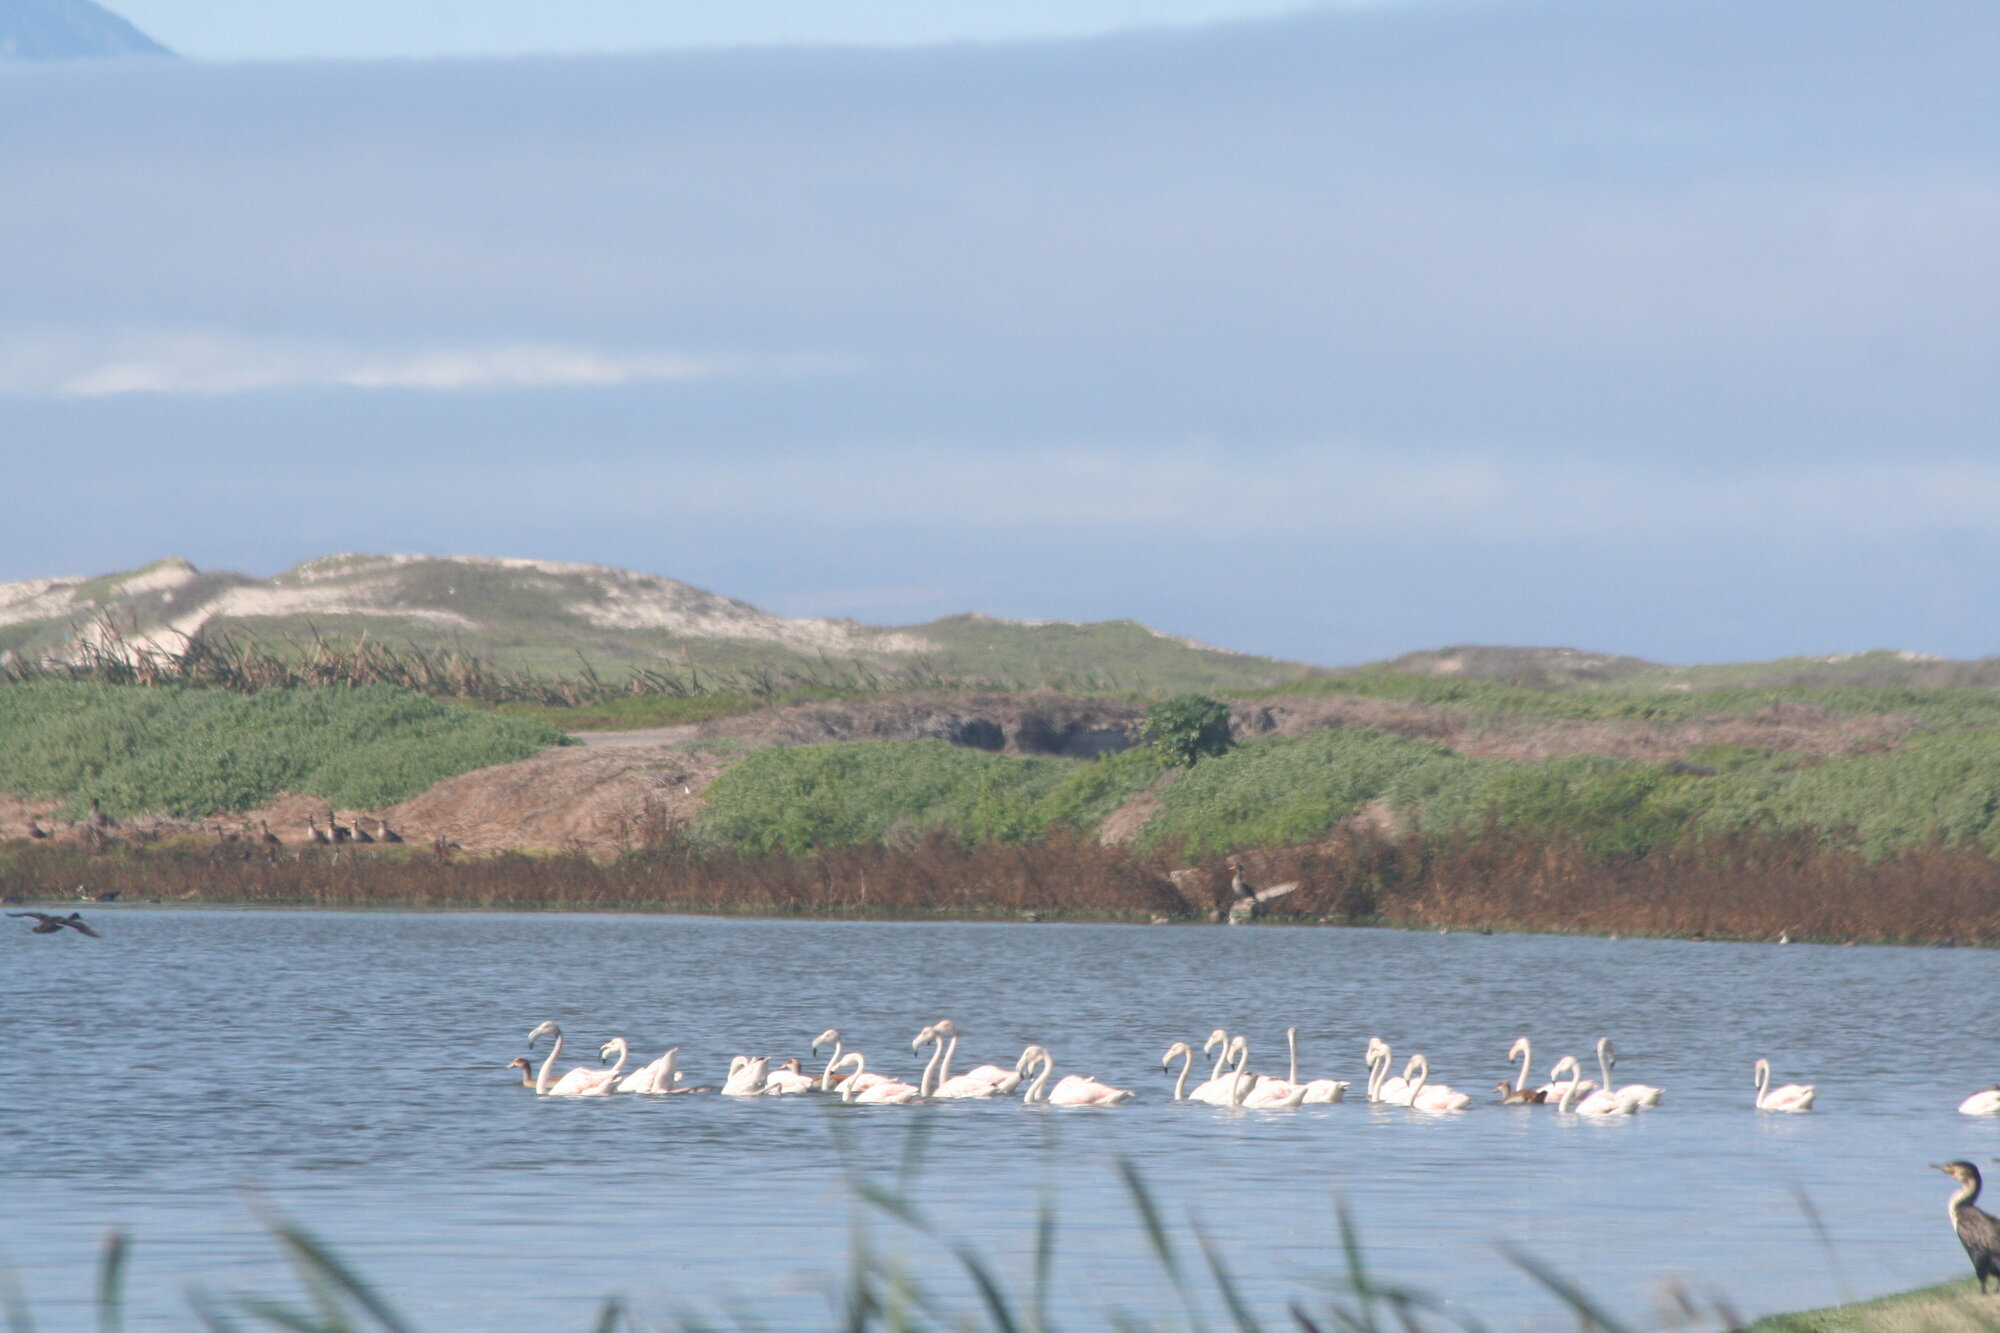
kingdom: Animalia
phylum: Chordata
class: Aves
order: Phoenicopteriformes
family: Phoenicopteridae
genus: Phoenicopterus
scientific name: Phoenicopterus roseus
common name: Greater flamingo
